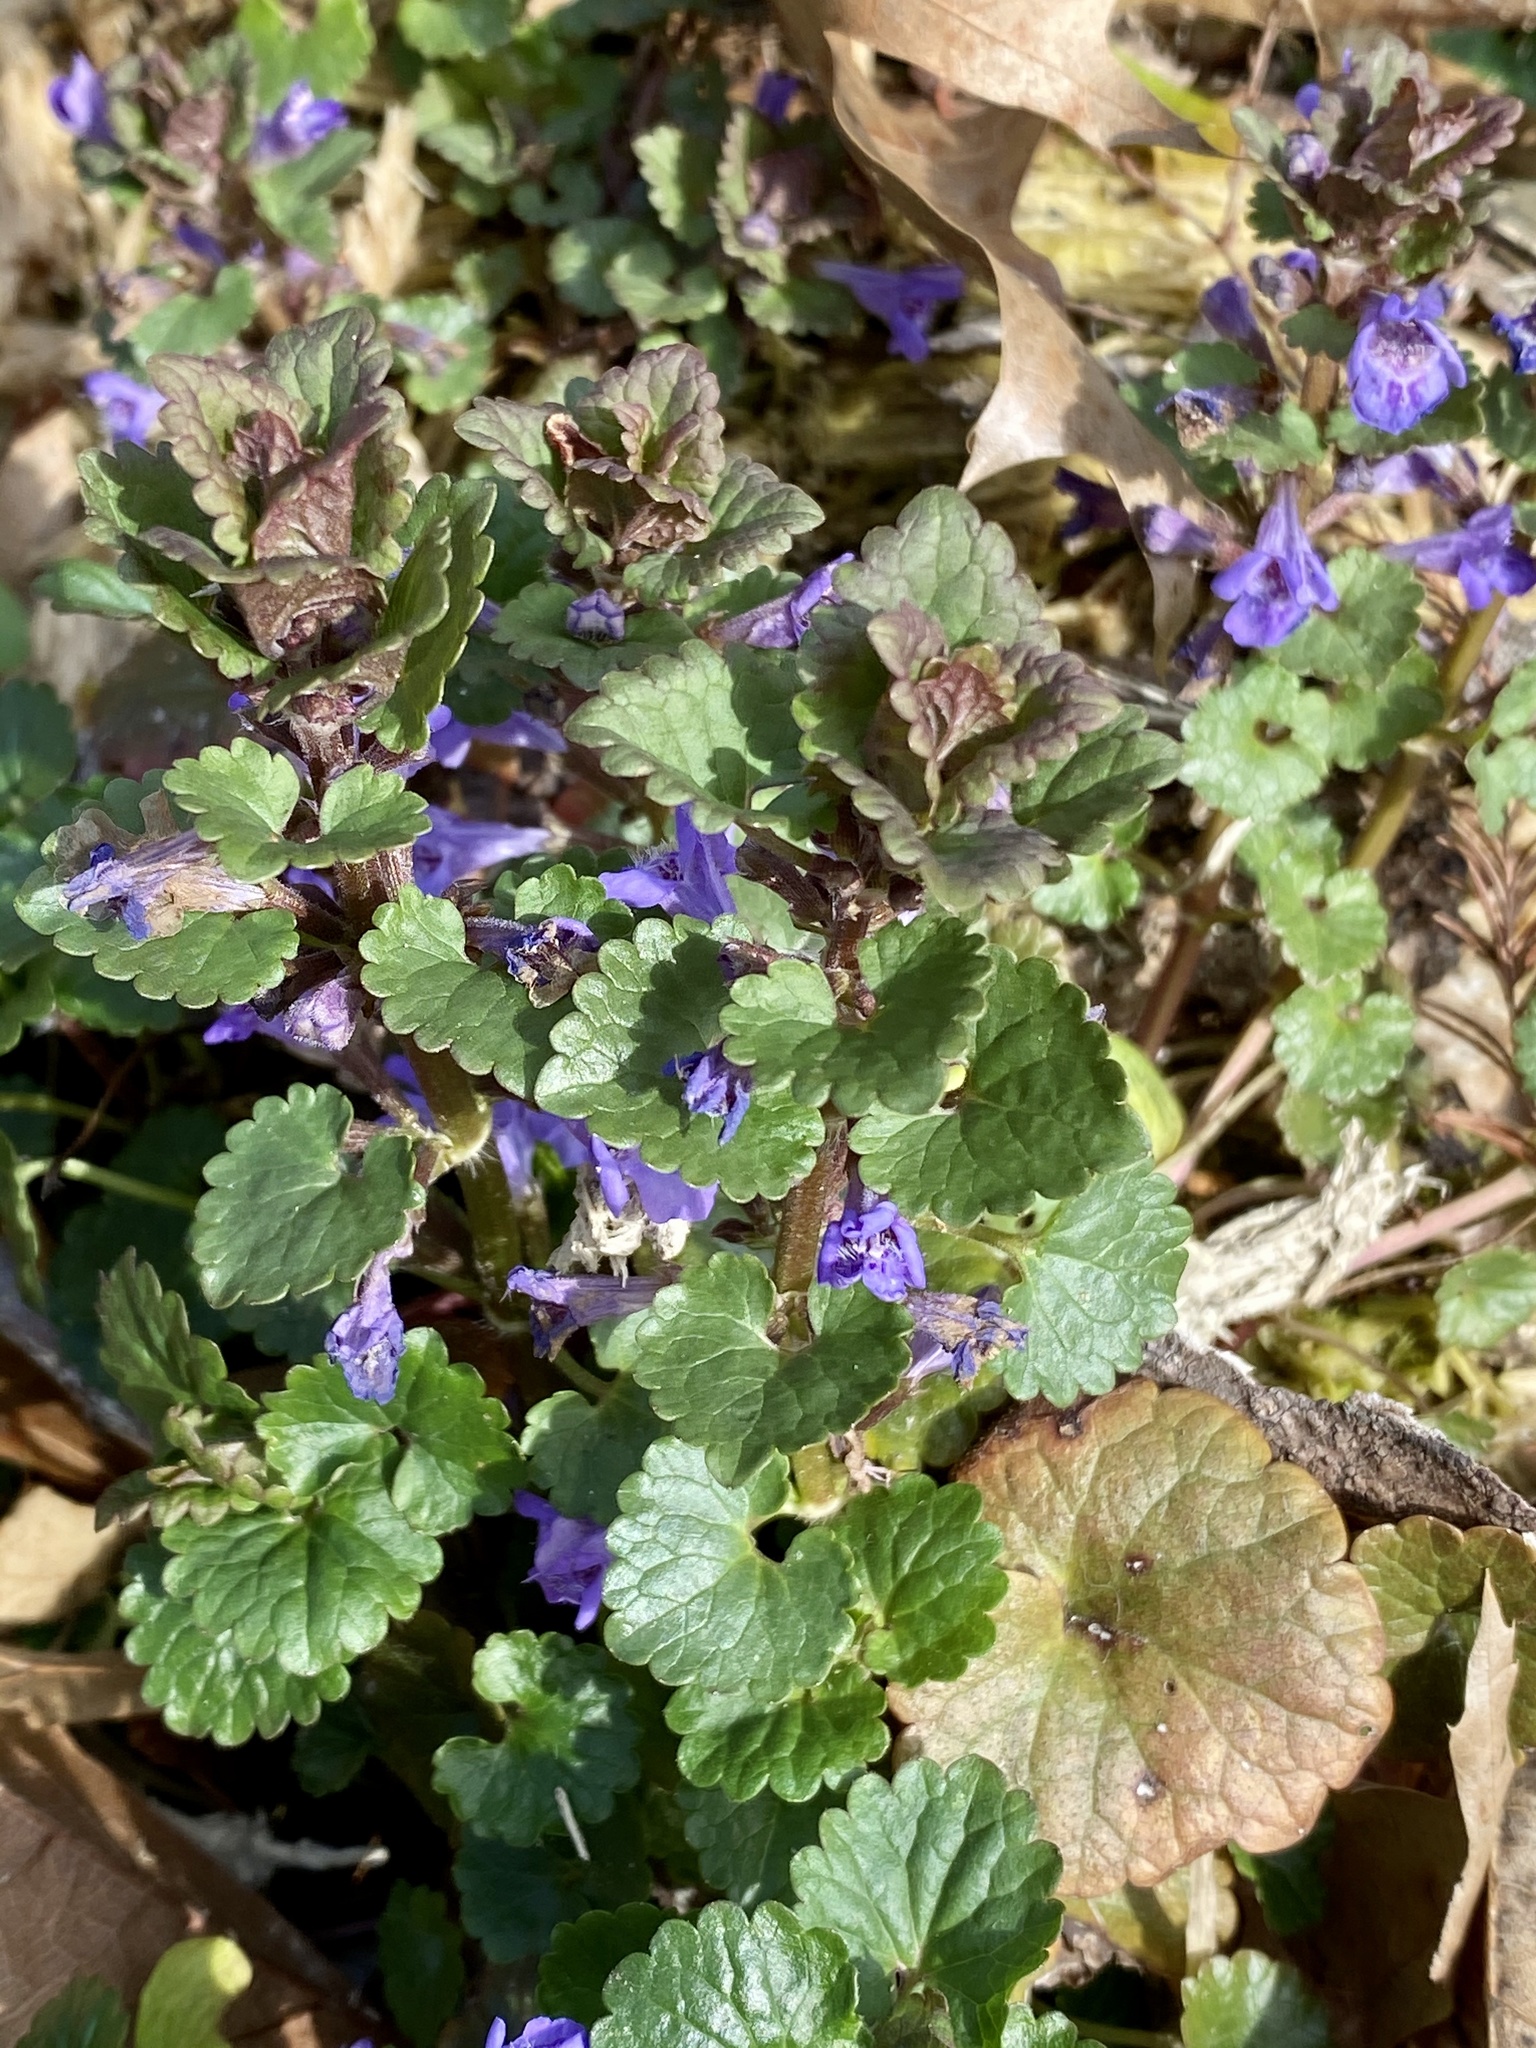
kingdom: Plantae
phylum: Tracheophyta
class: Magnoliopsida
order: Lamiales
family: Lamiaceae
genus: Glechoma
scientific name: Glechoma hederacea
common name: Ground ivy
